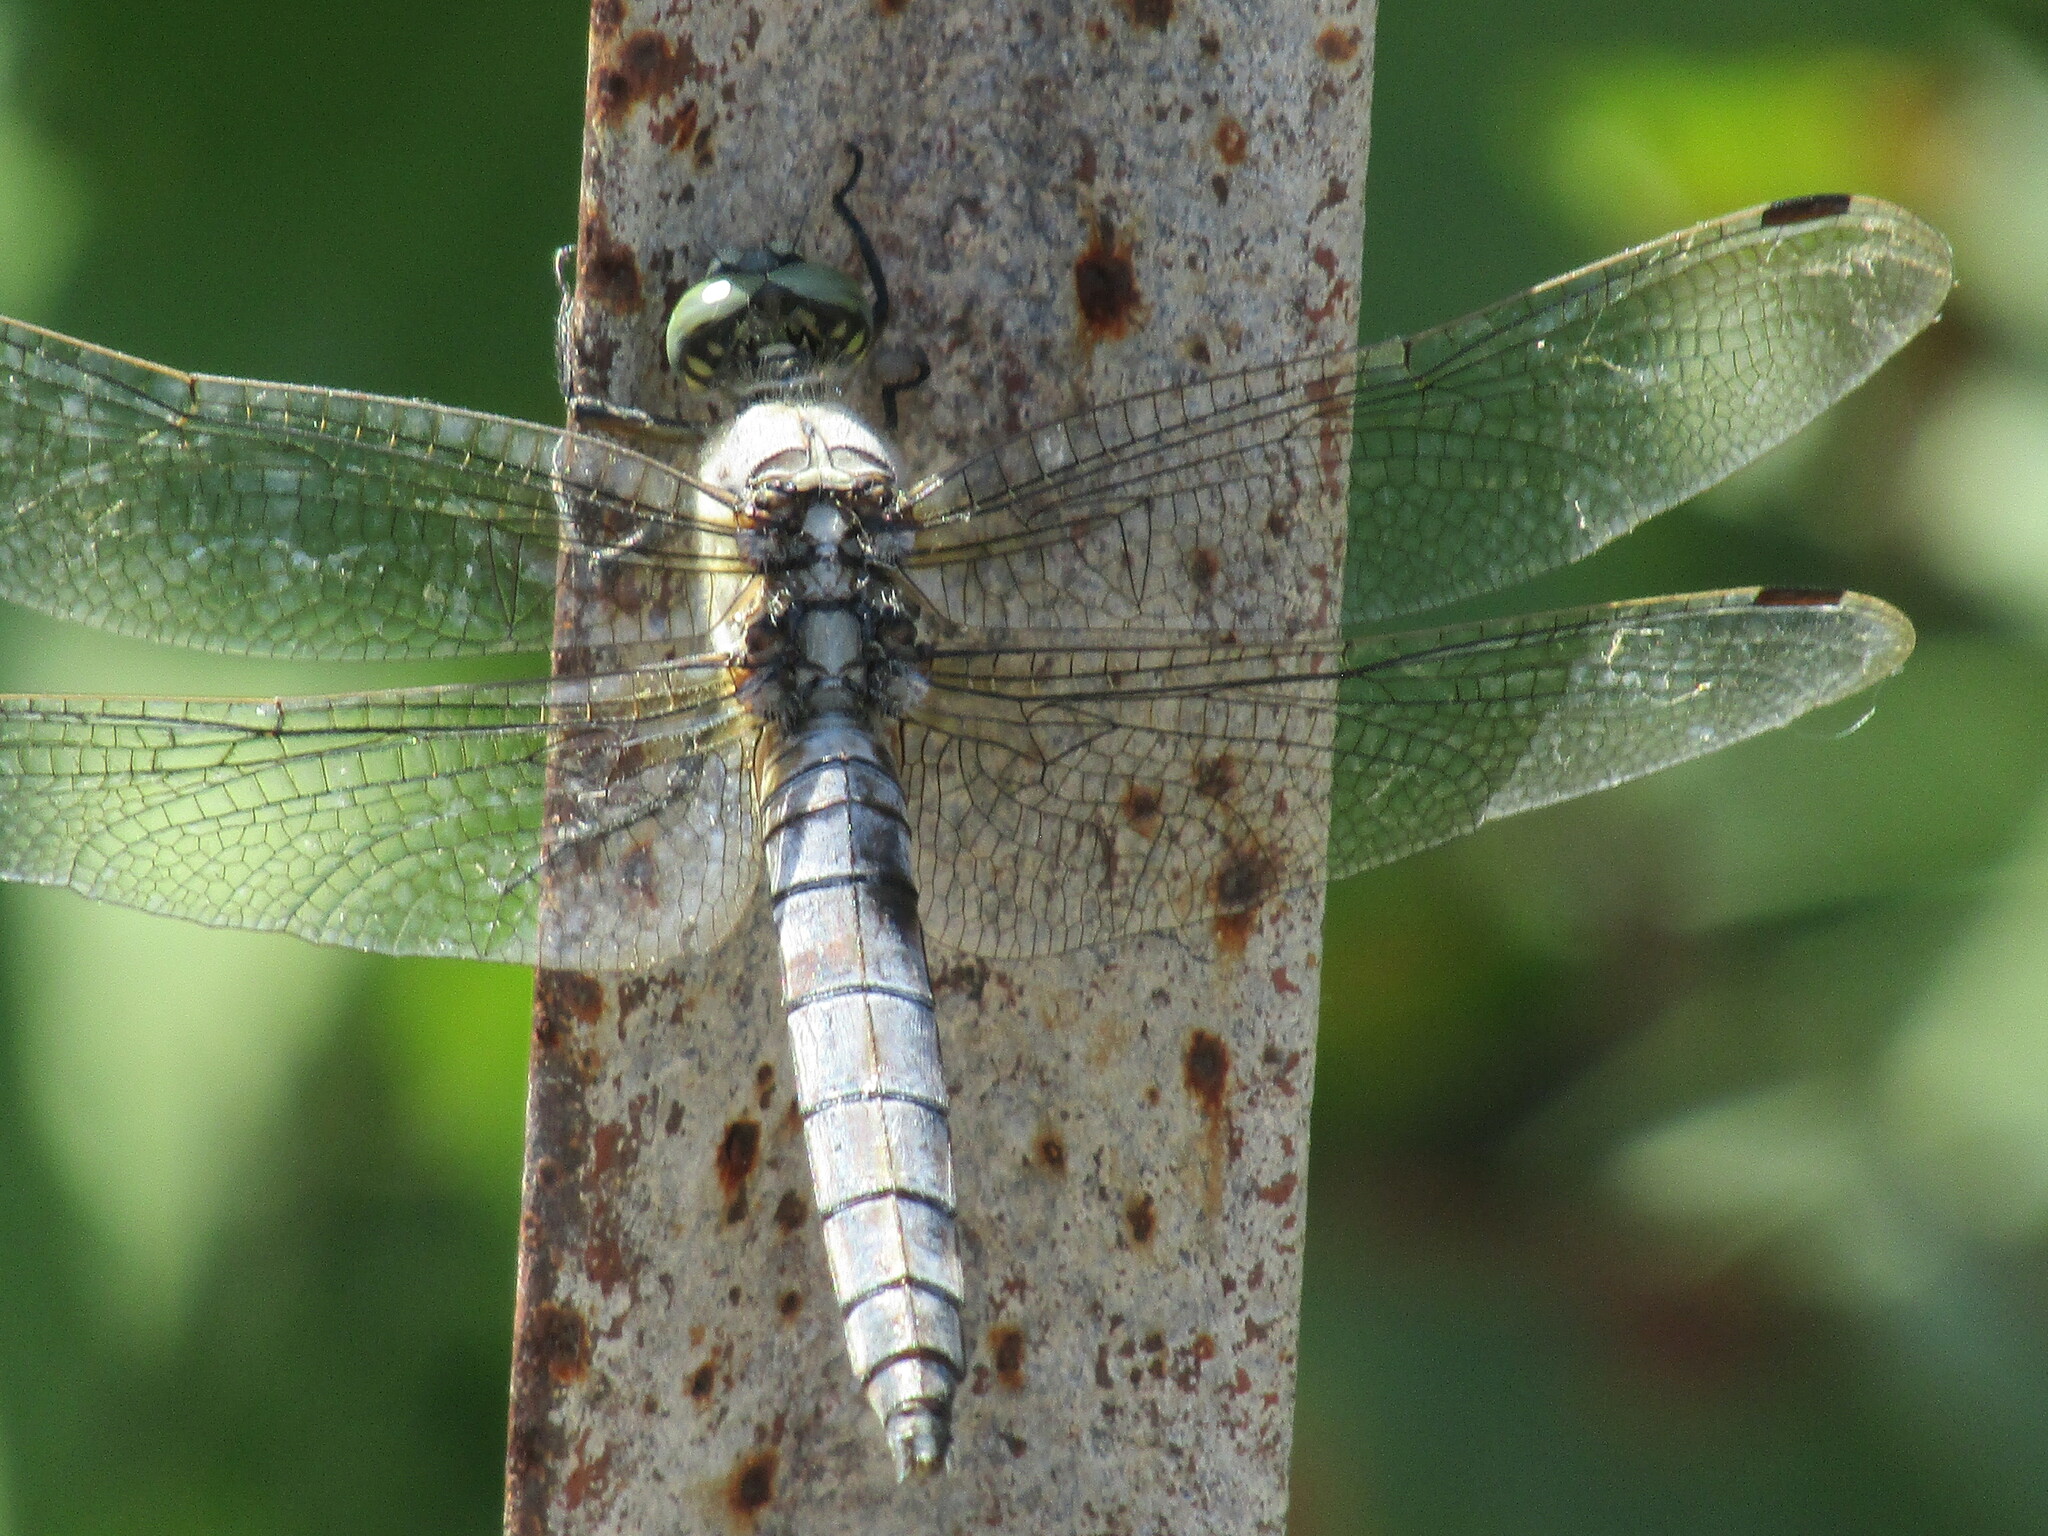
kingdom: Animalia
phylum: Arthropoda
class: Insecta
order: Odonata
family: Libellulidae
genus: Orthetrum
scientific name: Orthetrum cancellatum
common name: Black-tailed skimmer
